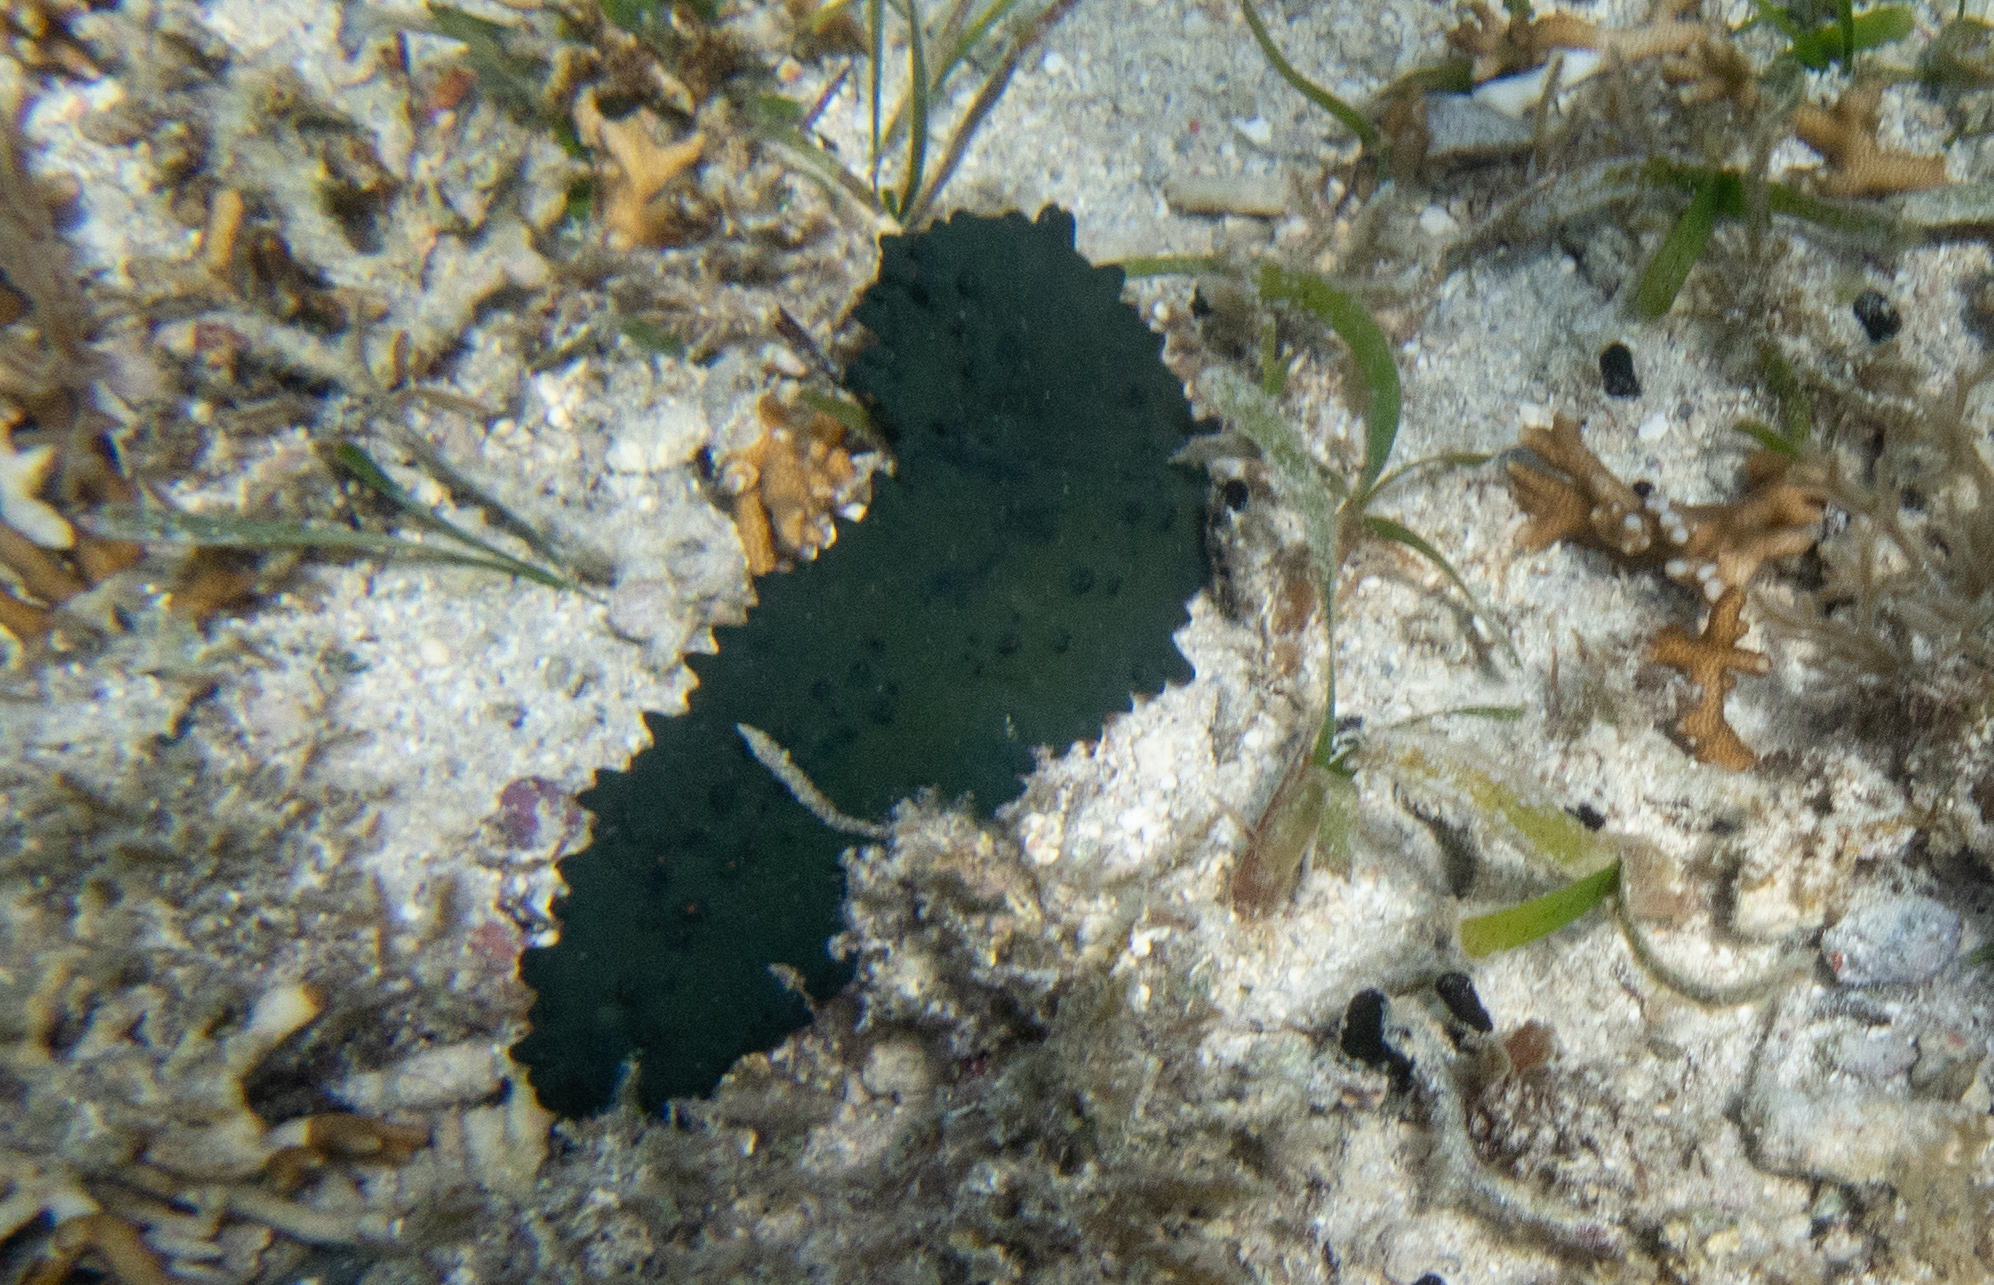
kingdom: Animalia
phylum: Echinodermata
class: Holothuroidea
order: Synallactida
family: Stichopodidae
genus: Stichopus
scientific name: Stichopus chloronotus
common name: Greenfish
